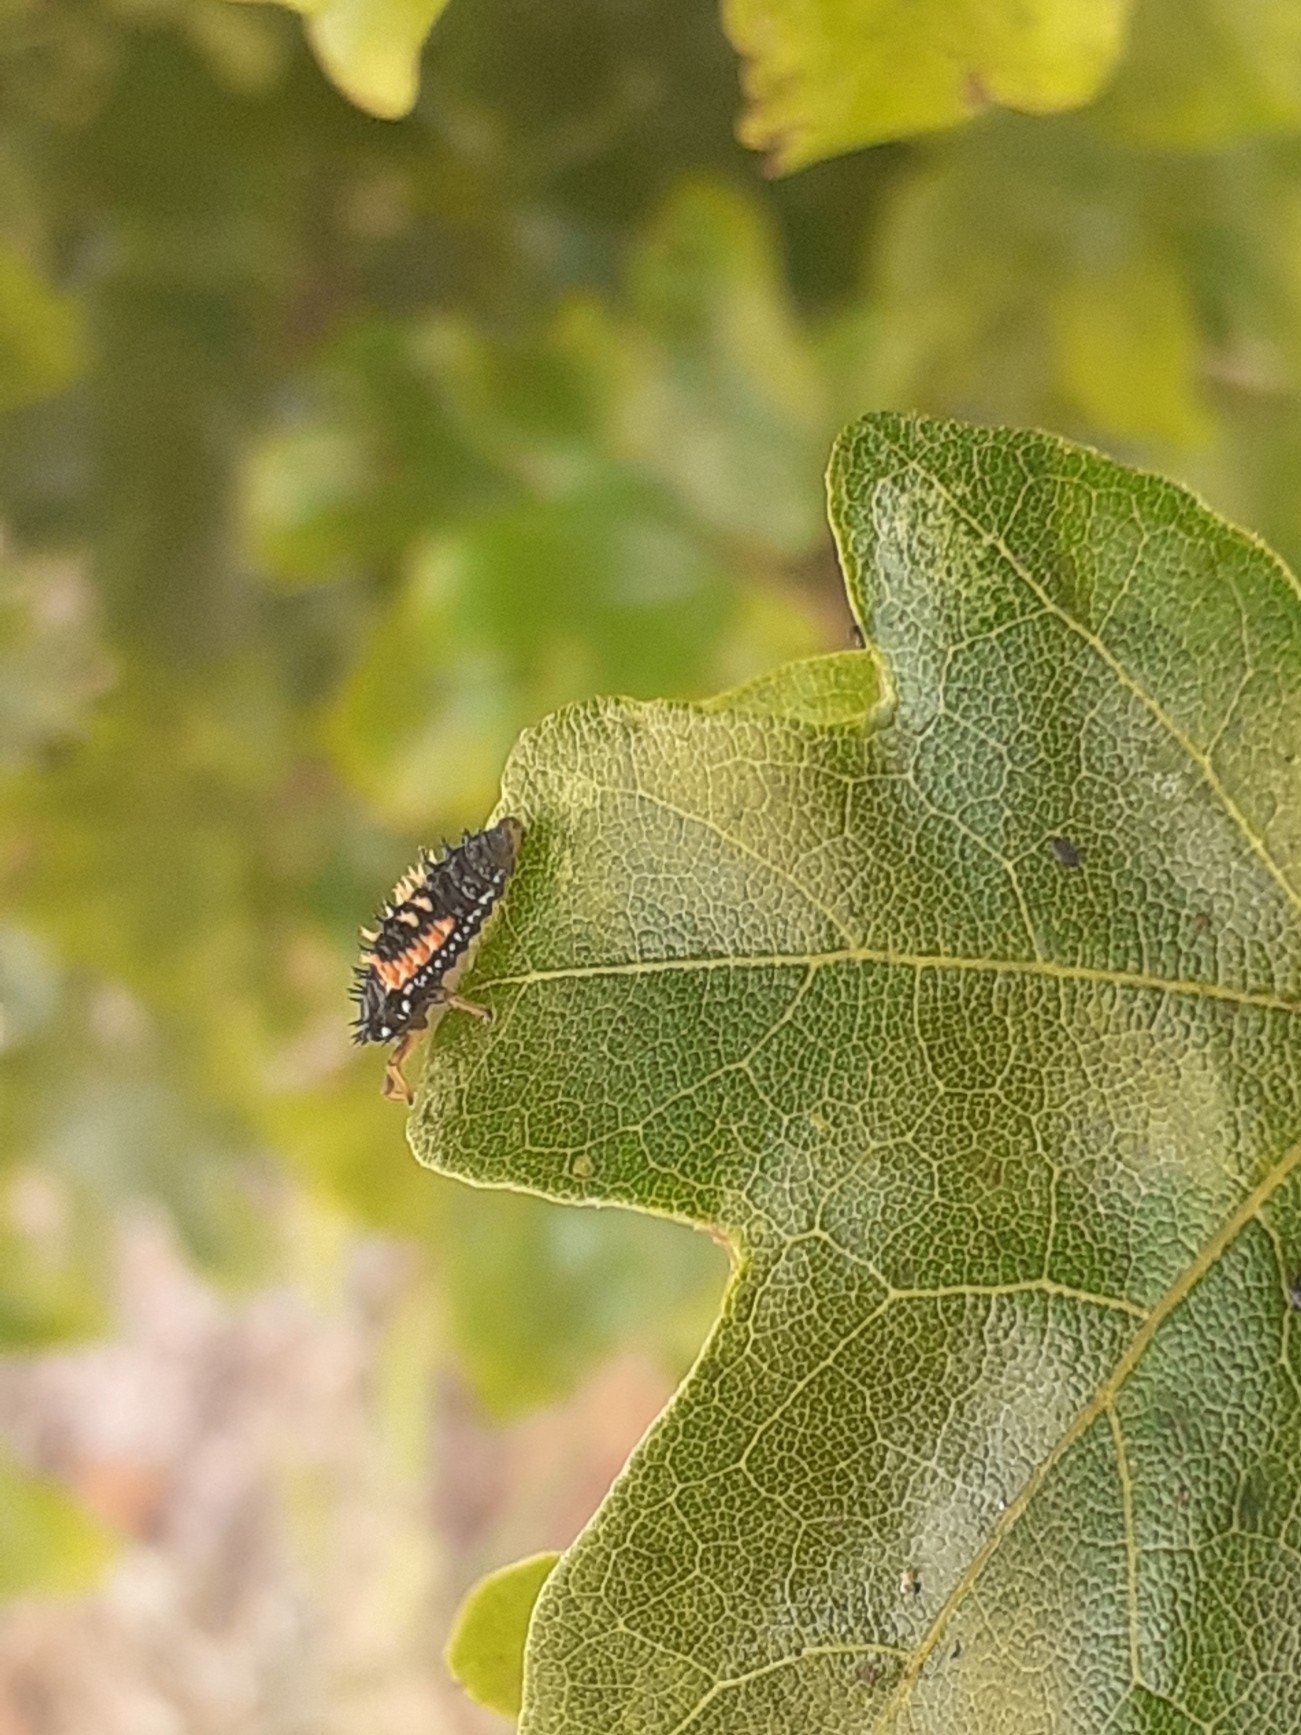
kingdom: Animalia
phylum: Arthropoda
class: Insecta
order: Coleoptera
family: Coccinellidae
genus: Harmonia
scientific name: Harmonia axyridis
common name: Harlequin ladybird
